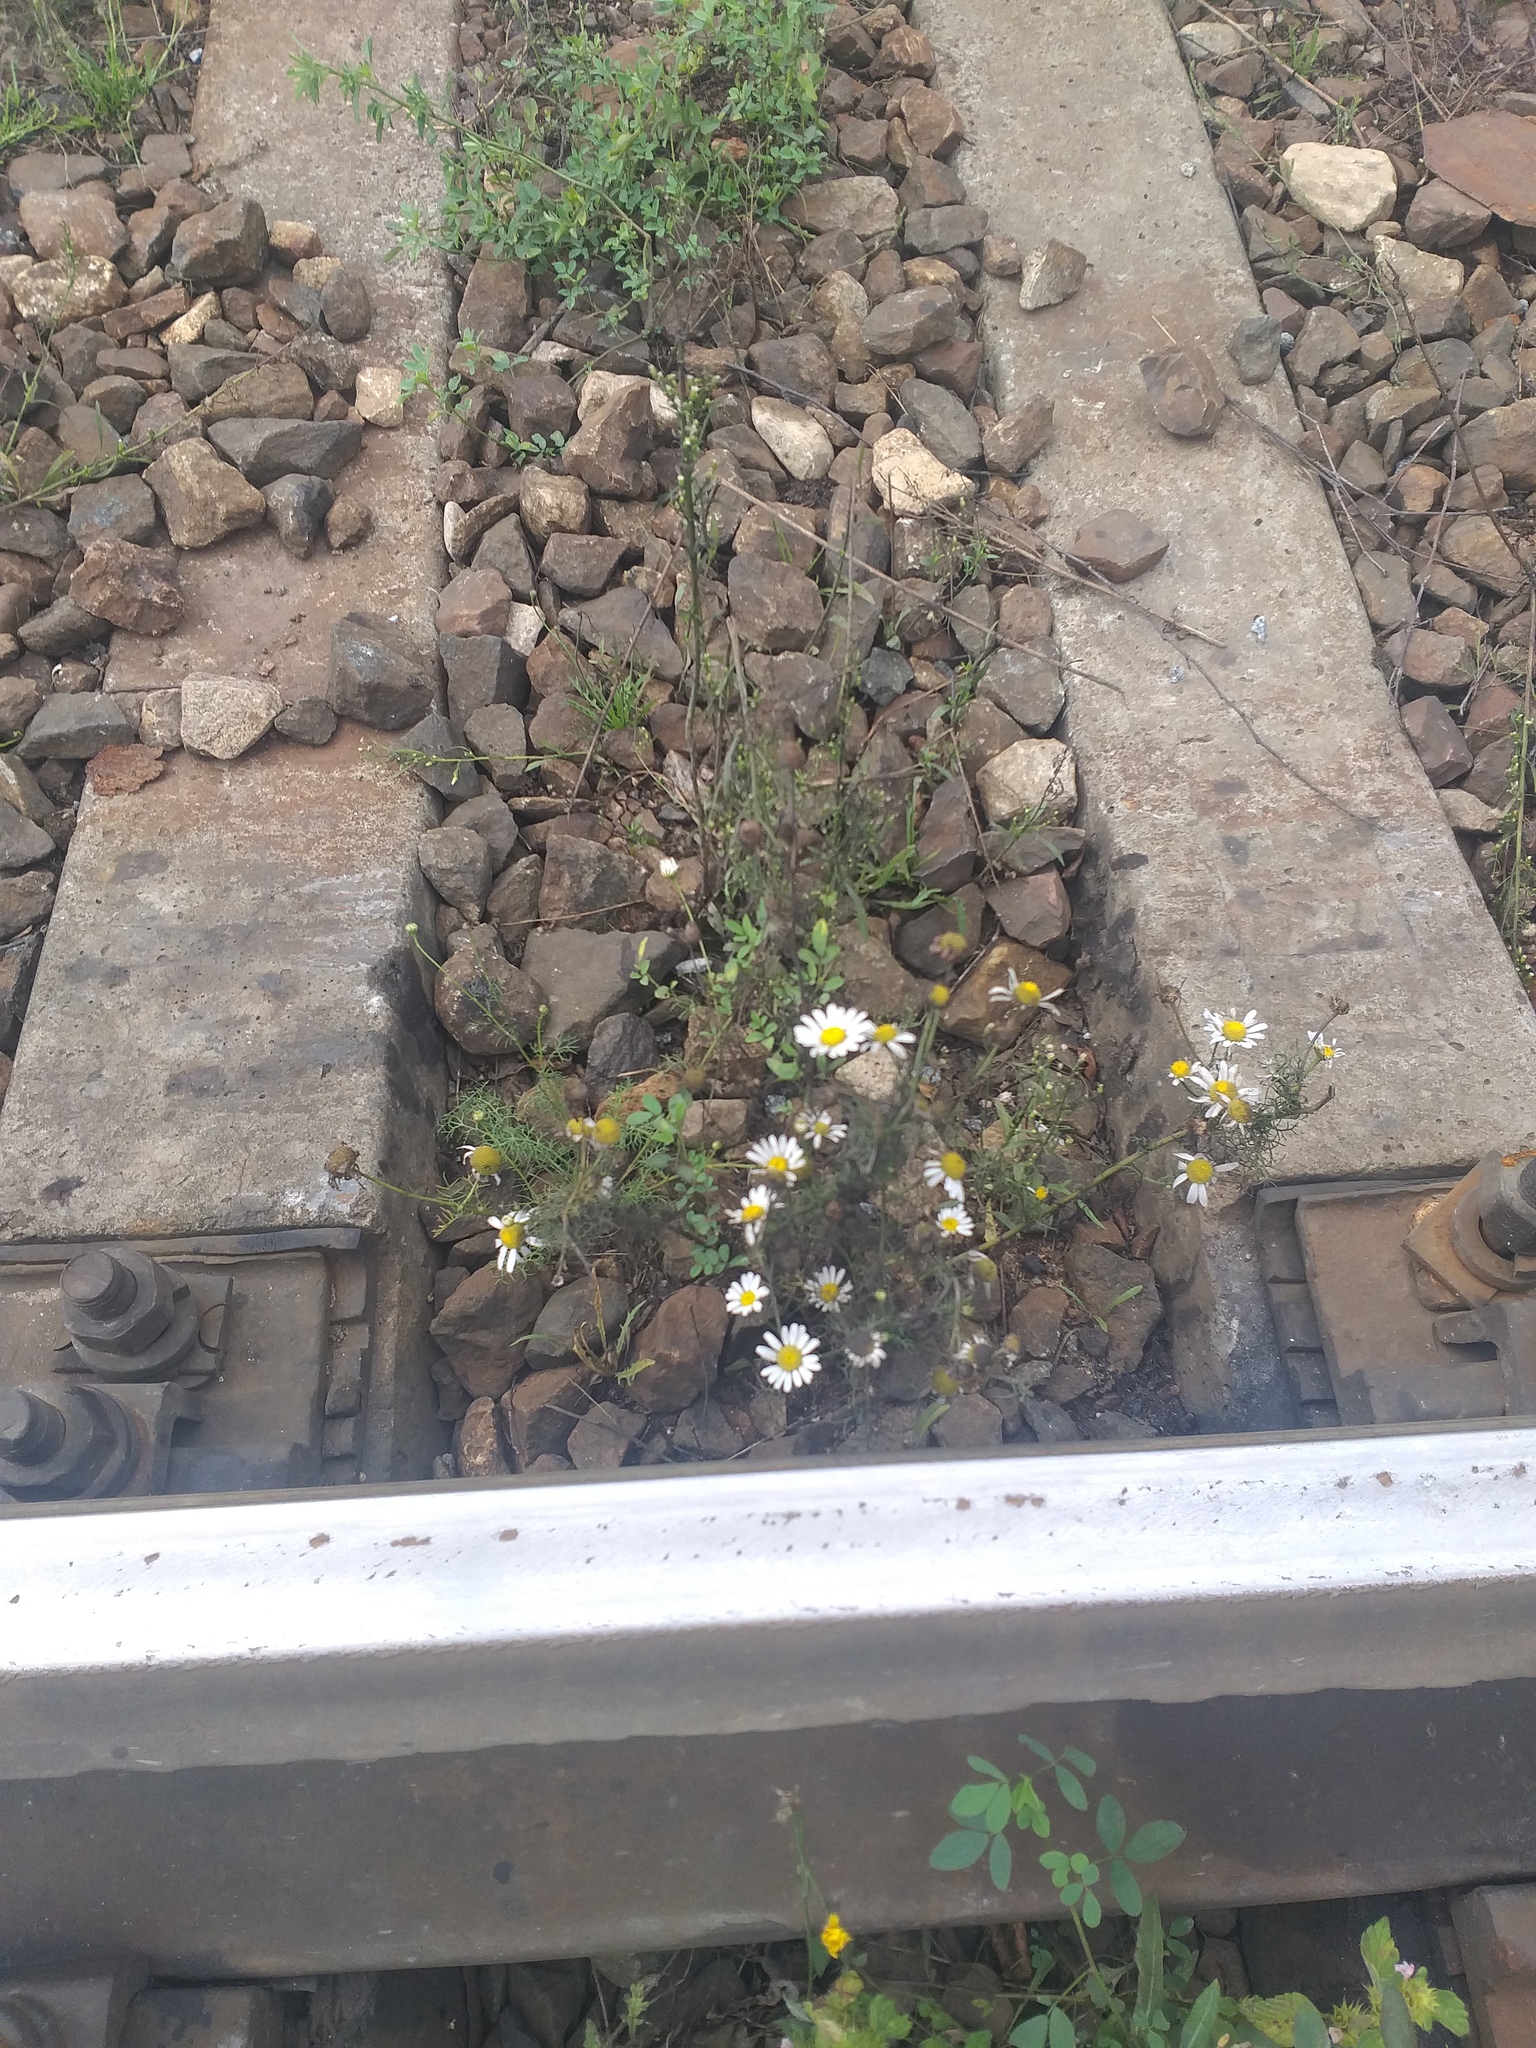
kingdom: Plantae
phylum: Tracheophyta
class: Magnoliopsida
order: Asterales
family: Asteraceae
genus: Tripleurospermum
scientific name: Tripleurospermum inodorum
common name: Scentless mayweed
